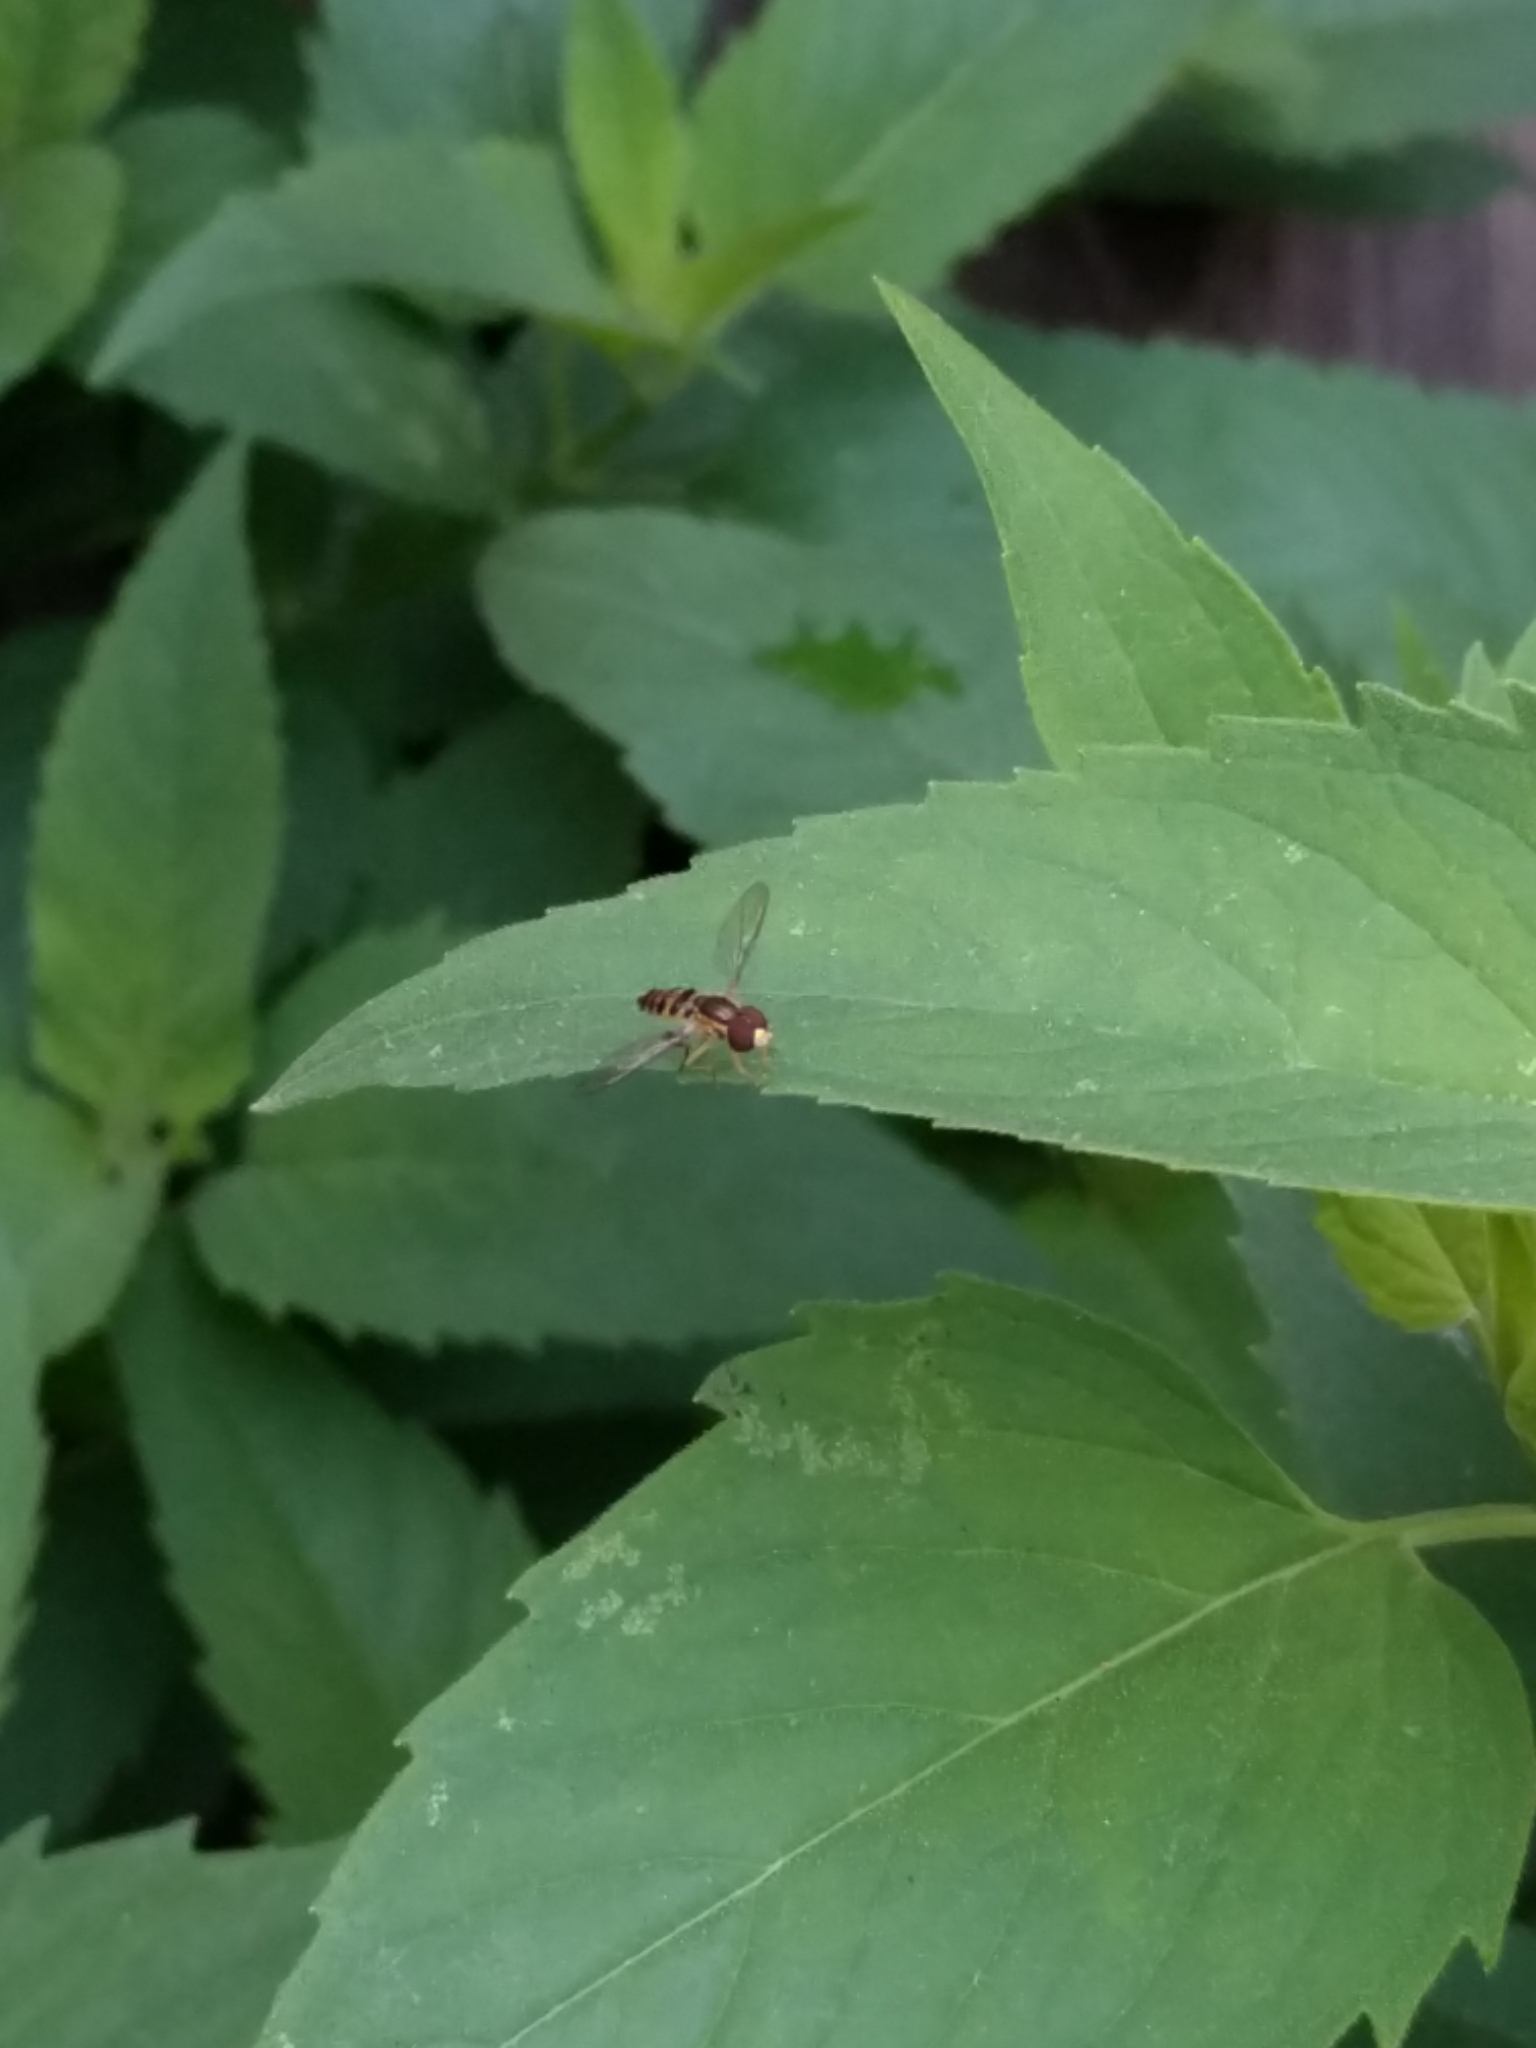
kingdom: Animalia
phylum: Arthropoda
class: Insecta
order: Diptera
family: Syrphidae
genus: Toxomerus
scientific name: Toxomerus geminatus
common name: Eastern calligrapher
